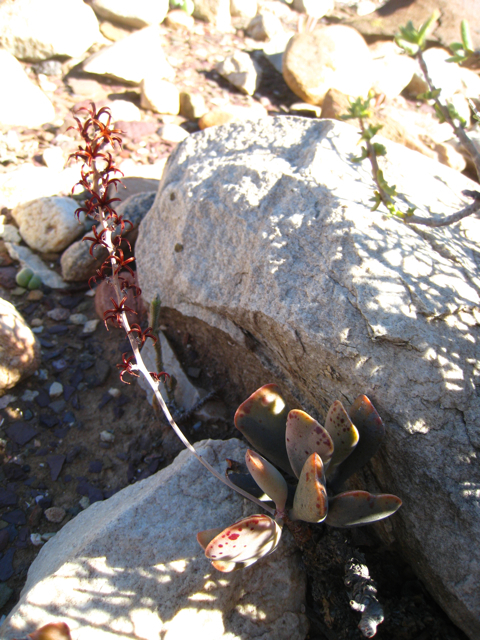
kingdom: Plantae
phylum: Tracheophyta
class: Magnoliopsida
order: Saxifragales
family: Crassulaceae
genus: Adromischus
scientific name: Adromischus triflorus
